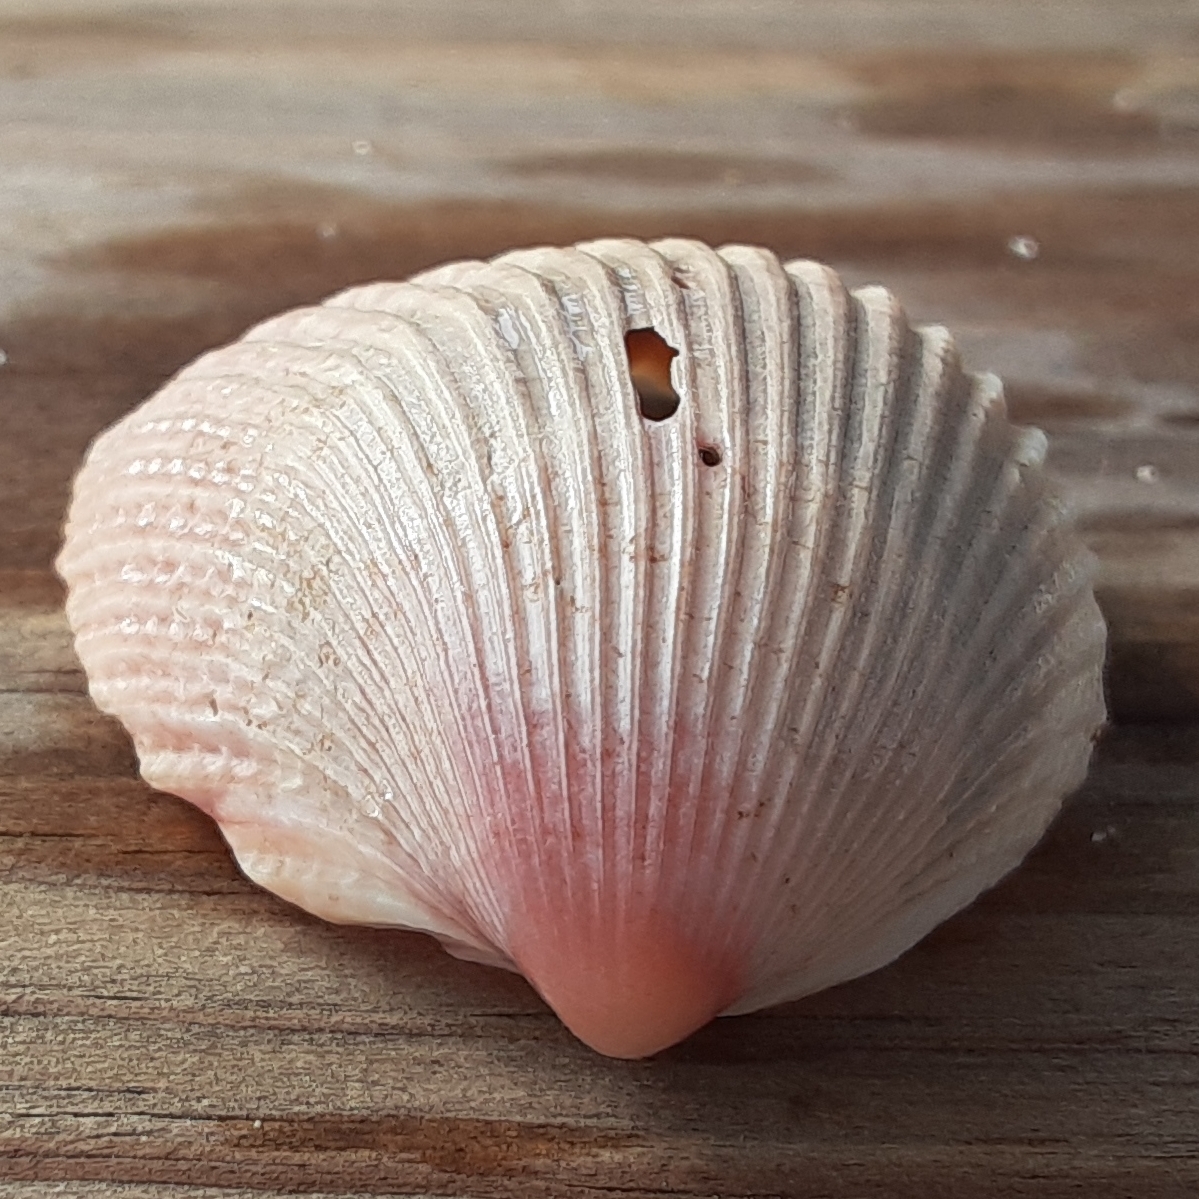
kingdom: Animalia
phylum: Mollusca
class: Bivalvia
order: Cardiida
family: Cardiidae
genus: Trachycardium
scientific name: Trachycardium egmontianum
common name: Florida pricklycockle
